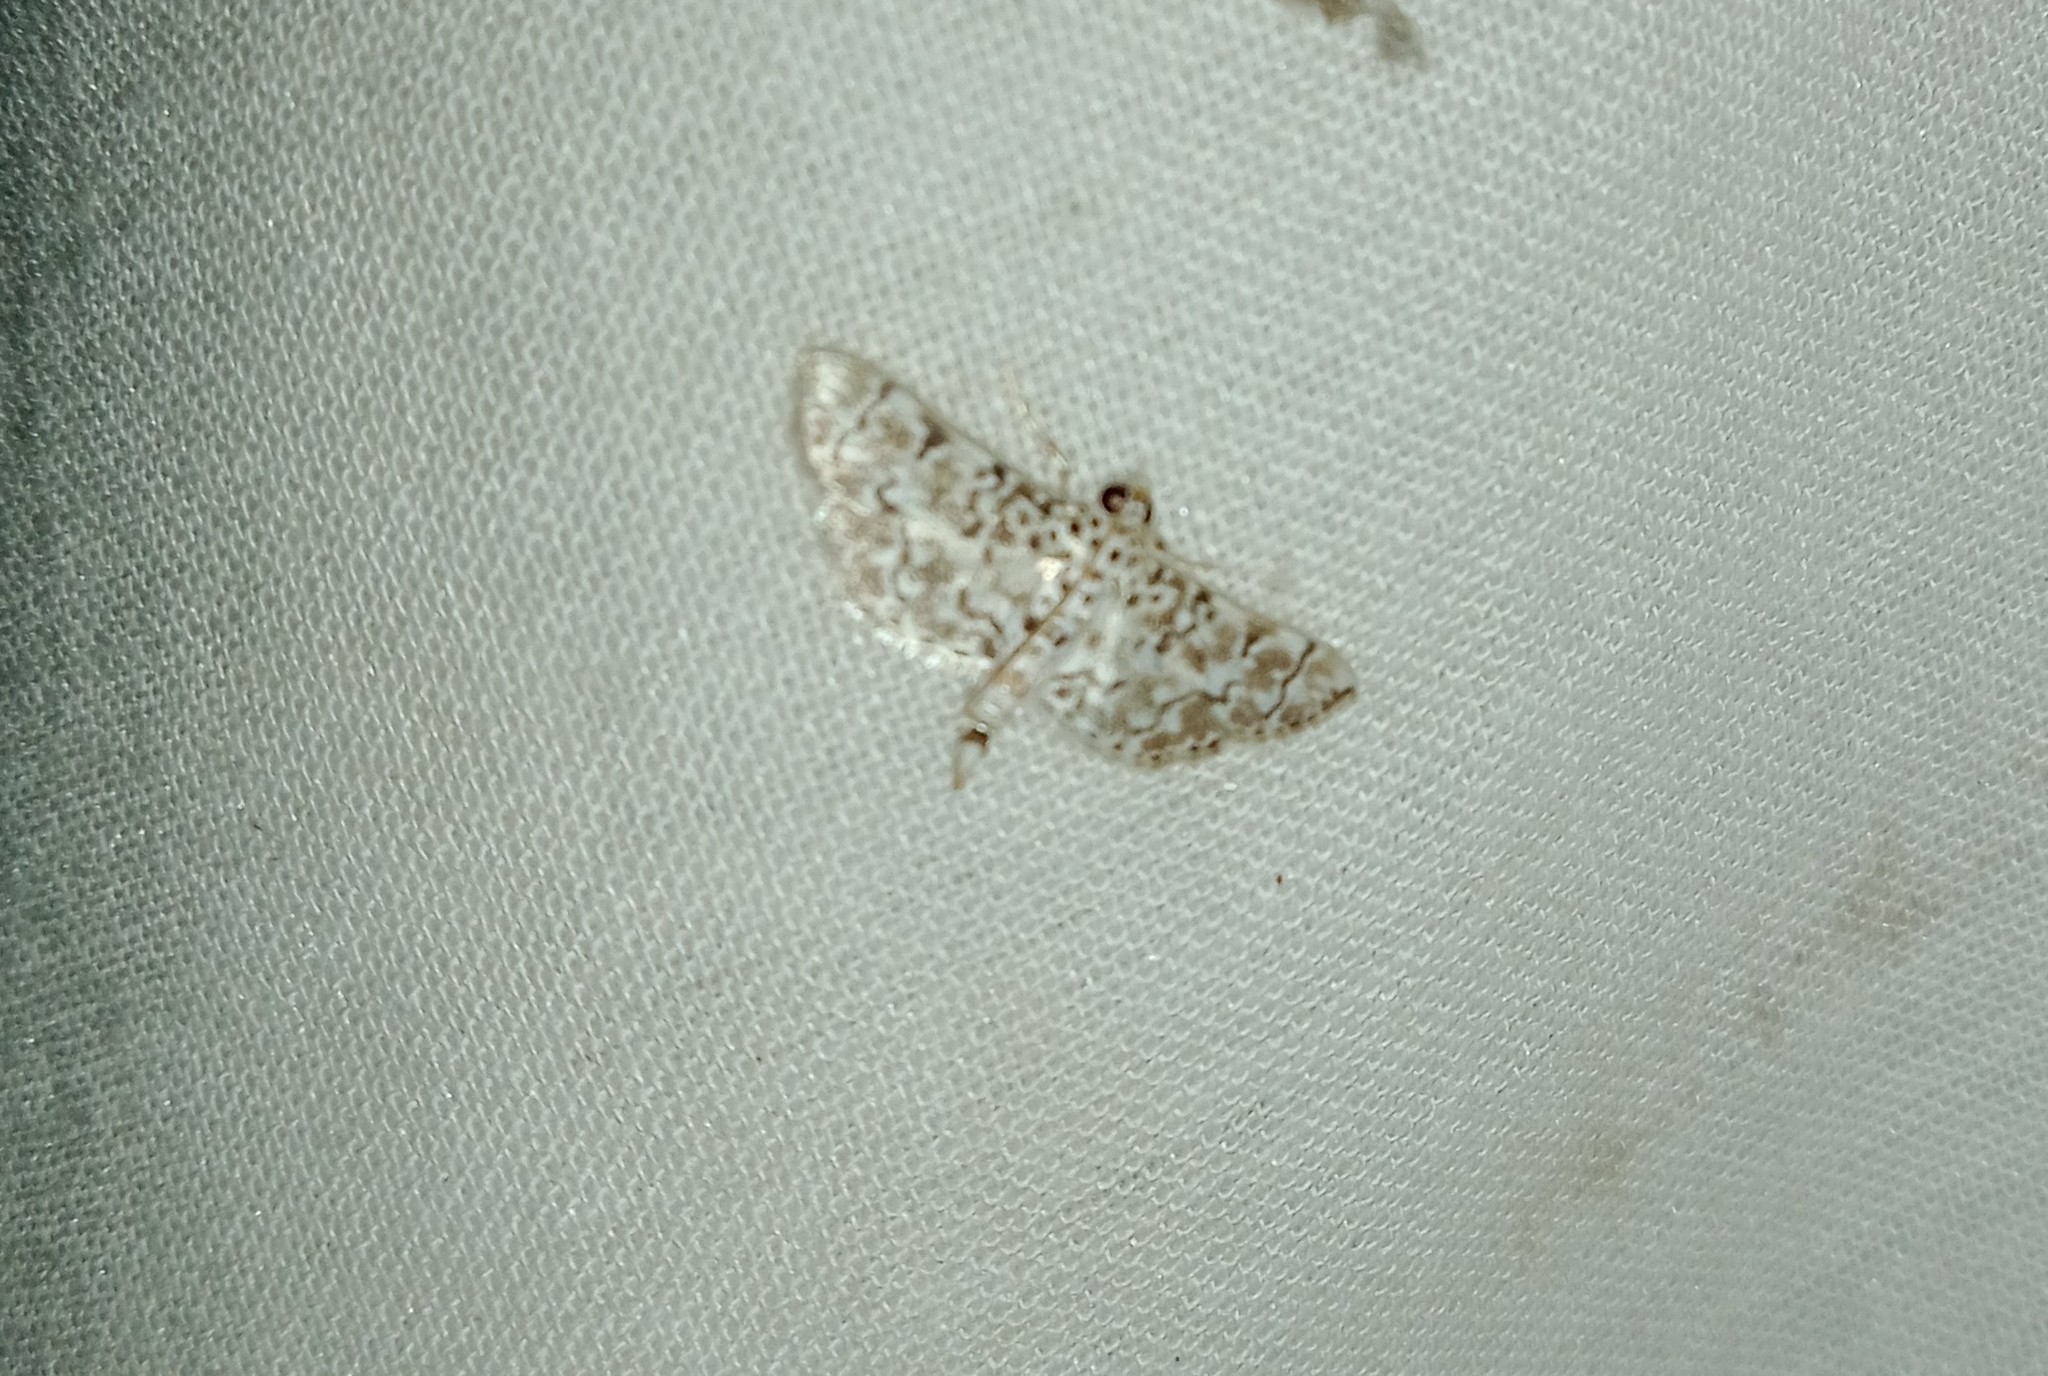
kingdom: Animalia
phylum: Arthropoda
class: Insecta
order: Lepidoptera
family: Crambidae
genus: Metoeca
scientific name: Metoeca foedalis
